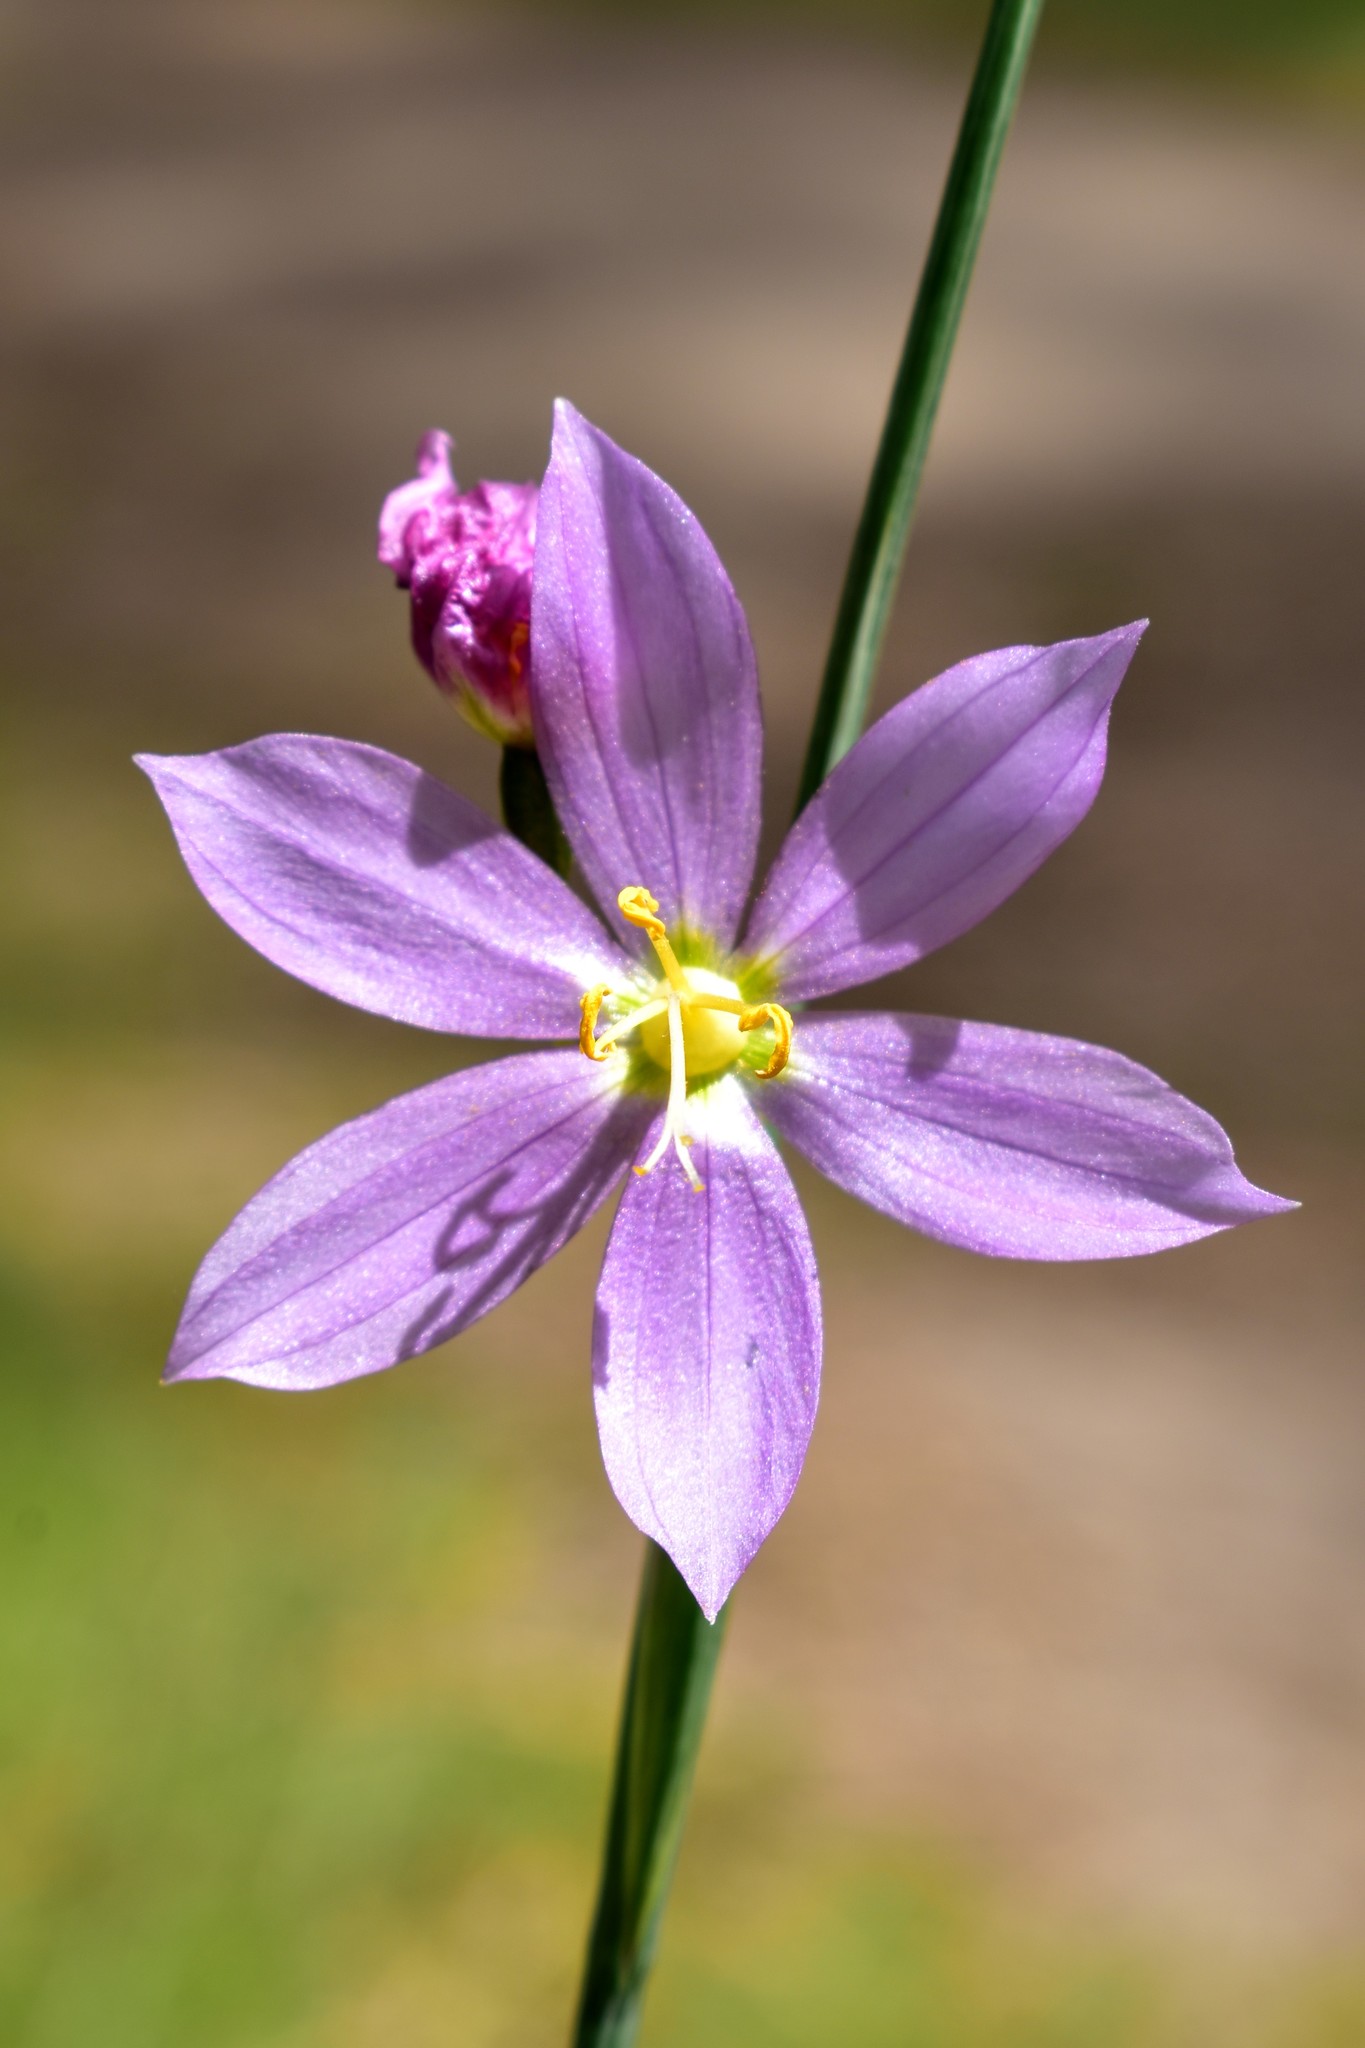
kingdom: Plantae
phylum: Tracheophyta
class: Liliopsida
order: Asparagales
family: Iridaceae
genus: Olsynium
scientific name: Olsynium douglasii
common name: Douglas' grasswidow
